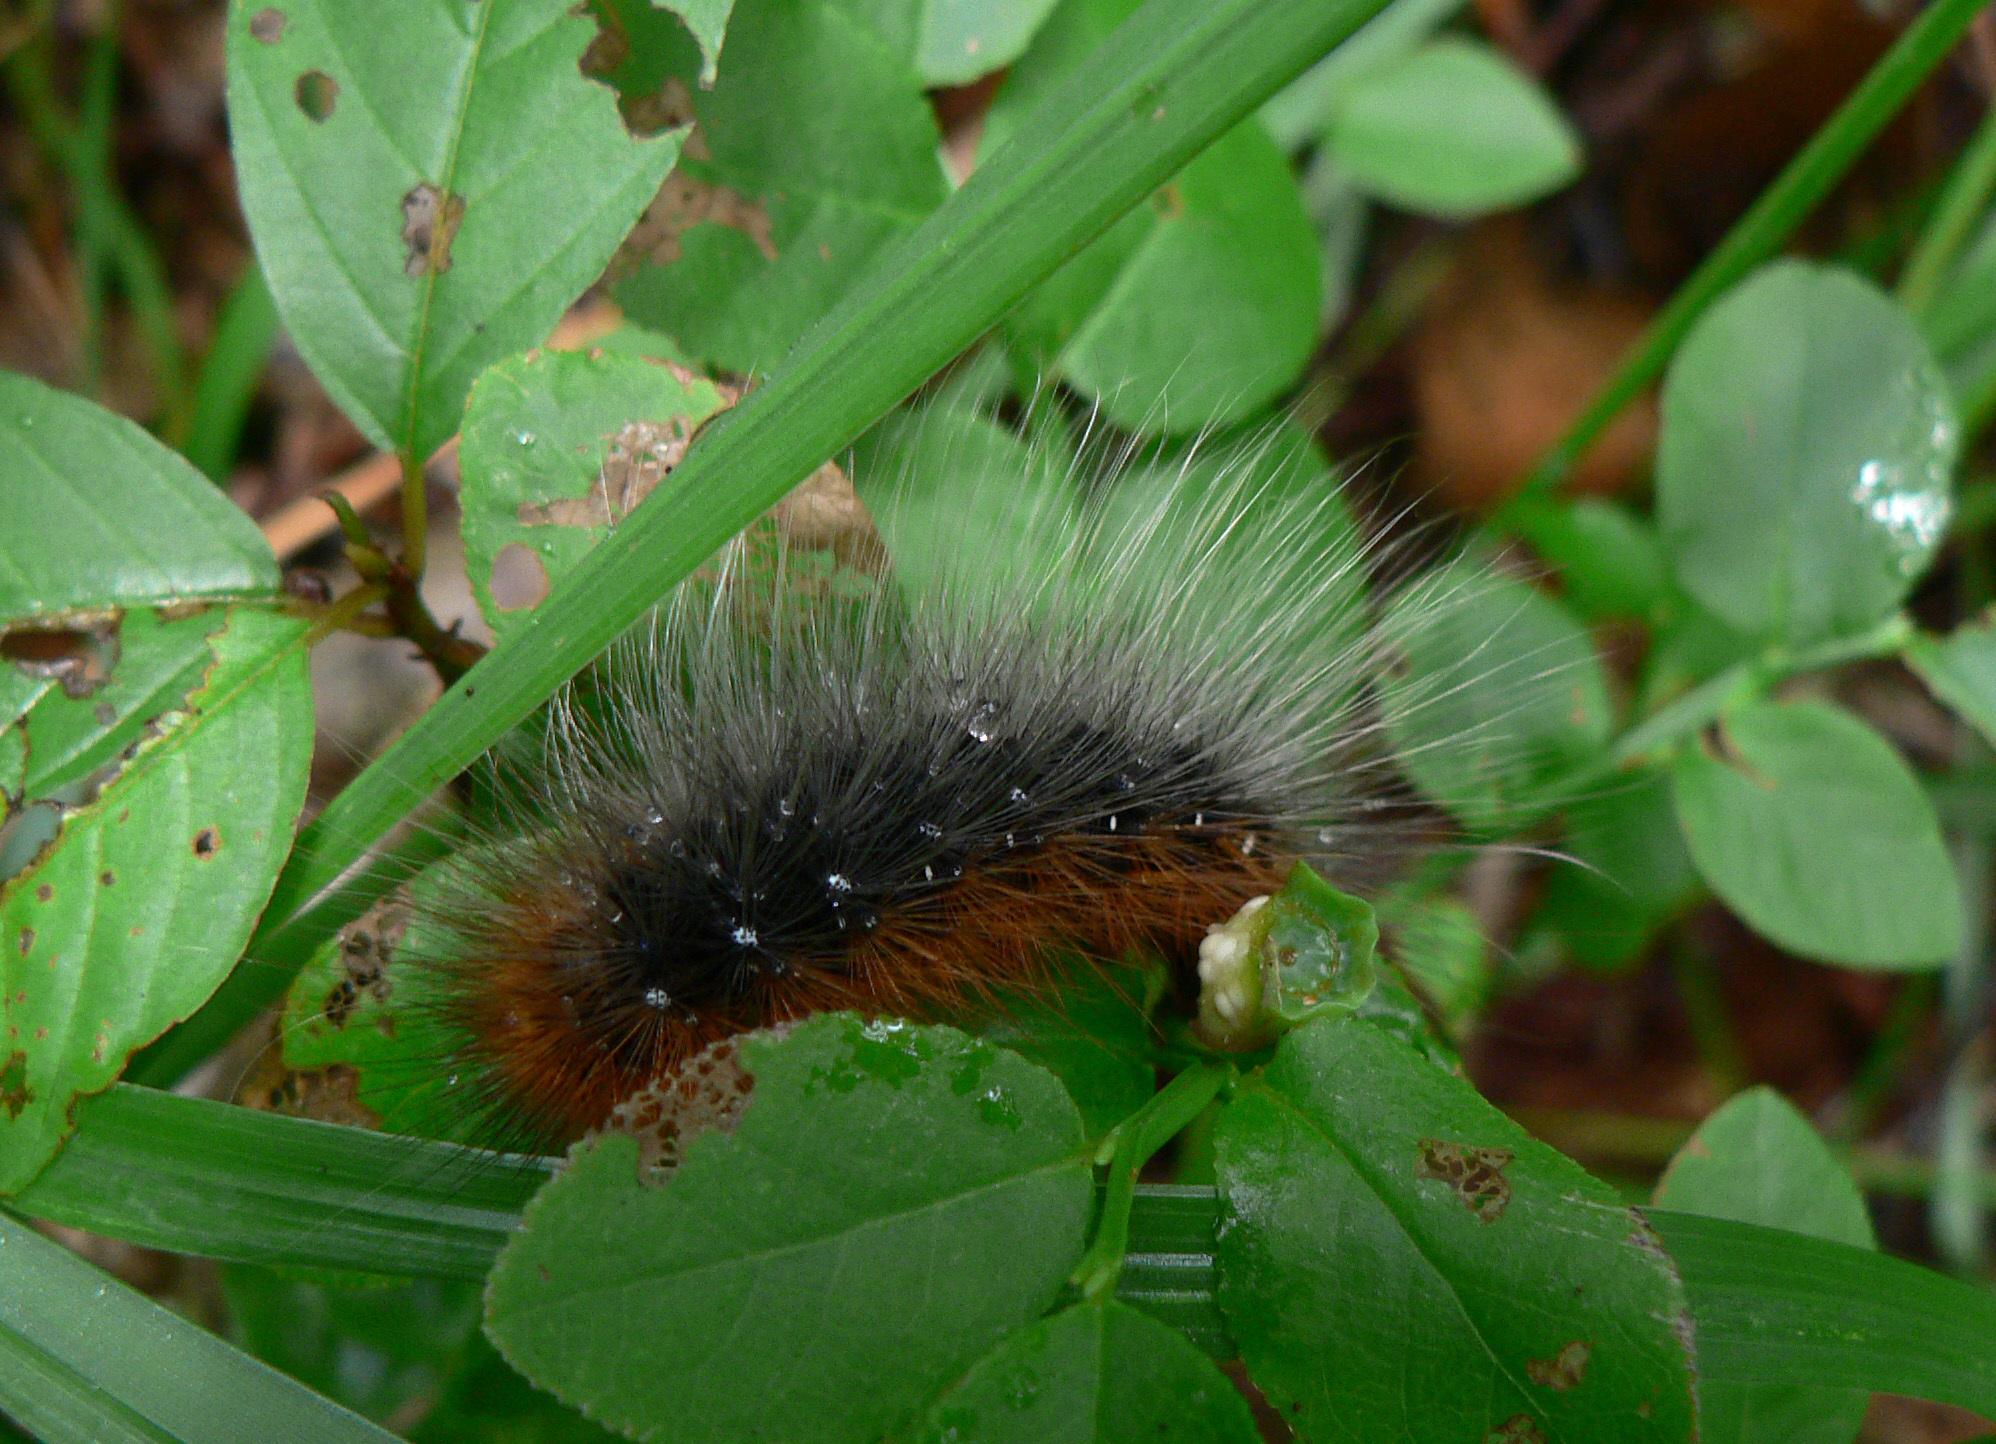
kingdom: Animalia
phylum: Arthropoda
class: Insecta
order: Lepidoptera
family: Erebidae
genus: Arctia
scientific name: Arctia caja
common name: Garden tiger
